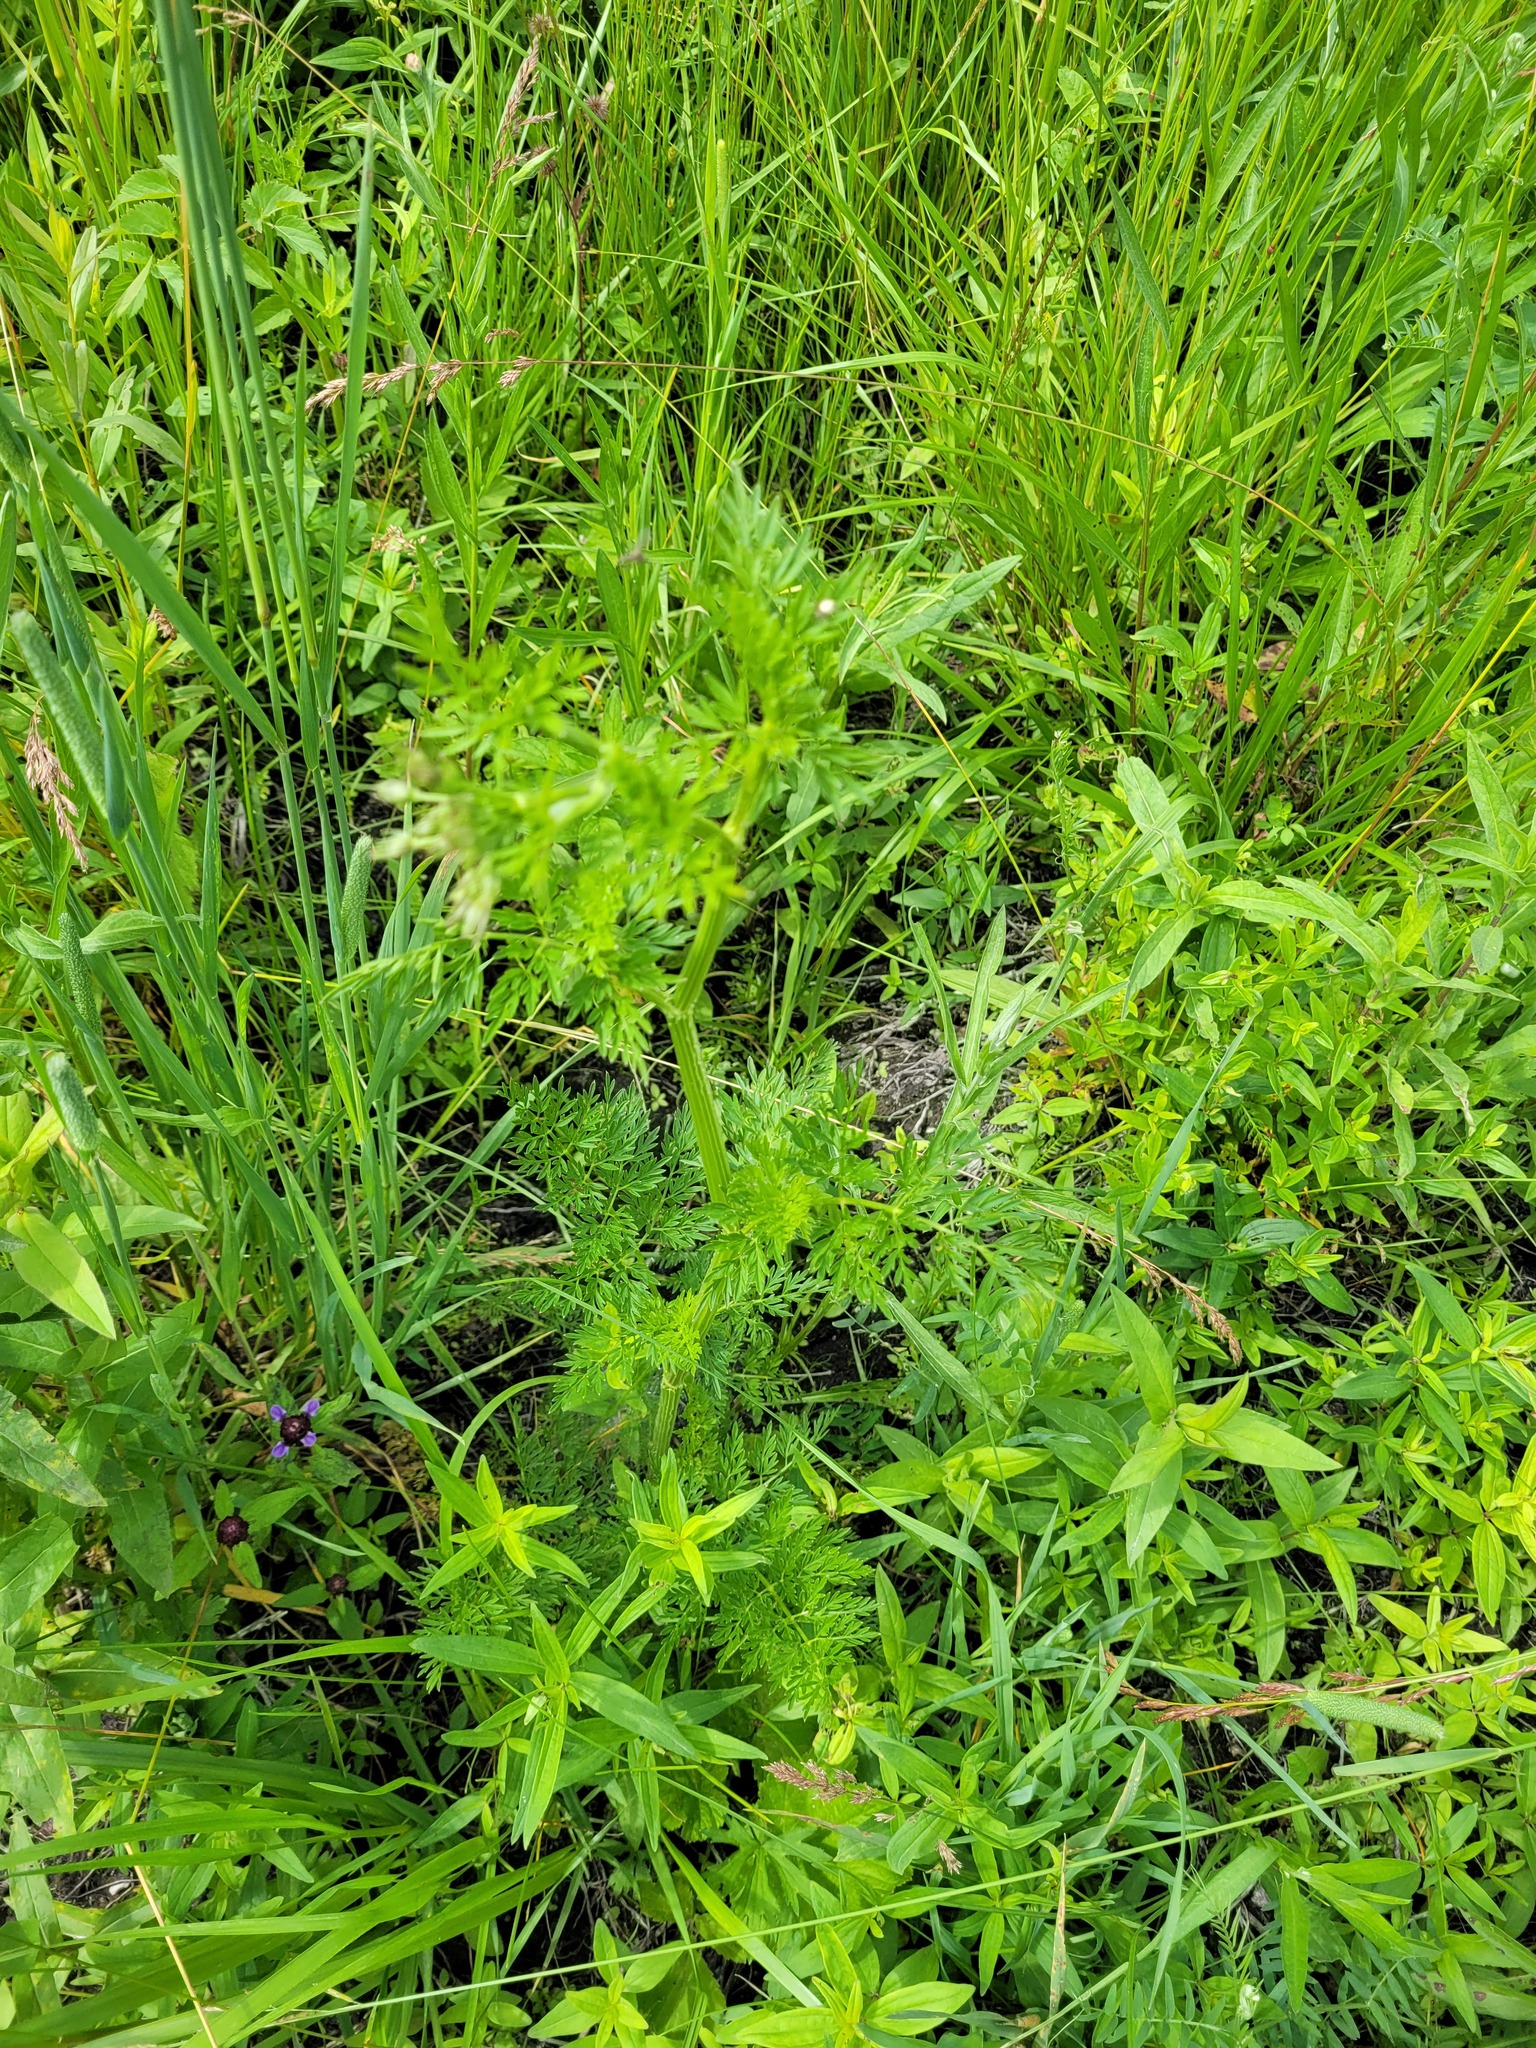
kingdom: Plantae
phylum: Tracheophyta
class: Magnoliopsida
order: Apiales
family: Apiaceae
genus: Selinum
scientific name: Selinum carvifolia
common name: Cambridge milk-parsley
